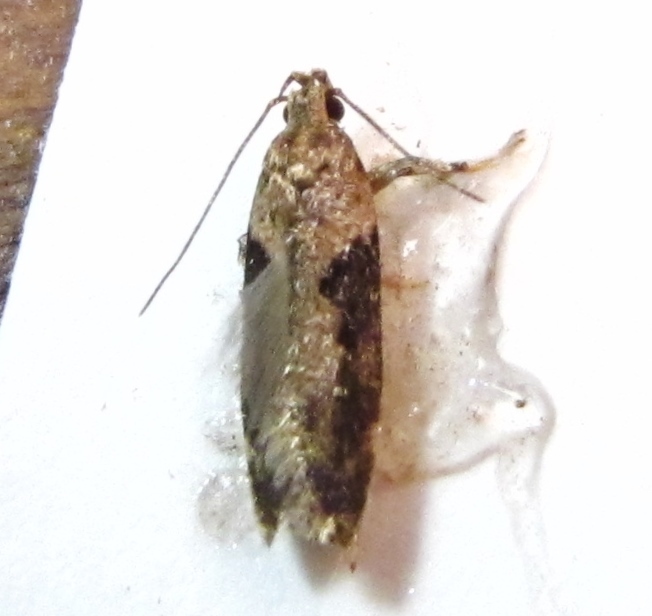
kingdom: Animalia
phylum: Arthropoda
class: Insecta
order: Lepidoptera
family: Gelechiidae
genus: Chionodes
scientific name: Chionodes mediofuscella
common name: Black-smudged chionodes moth
